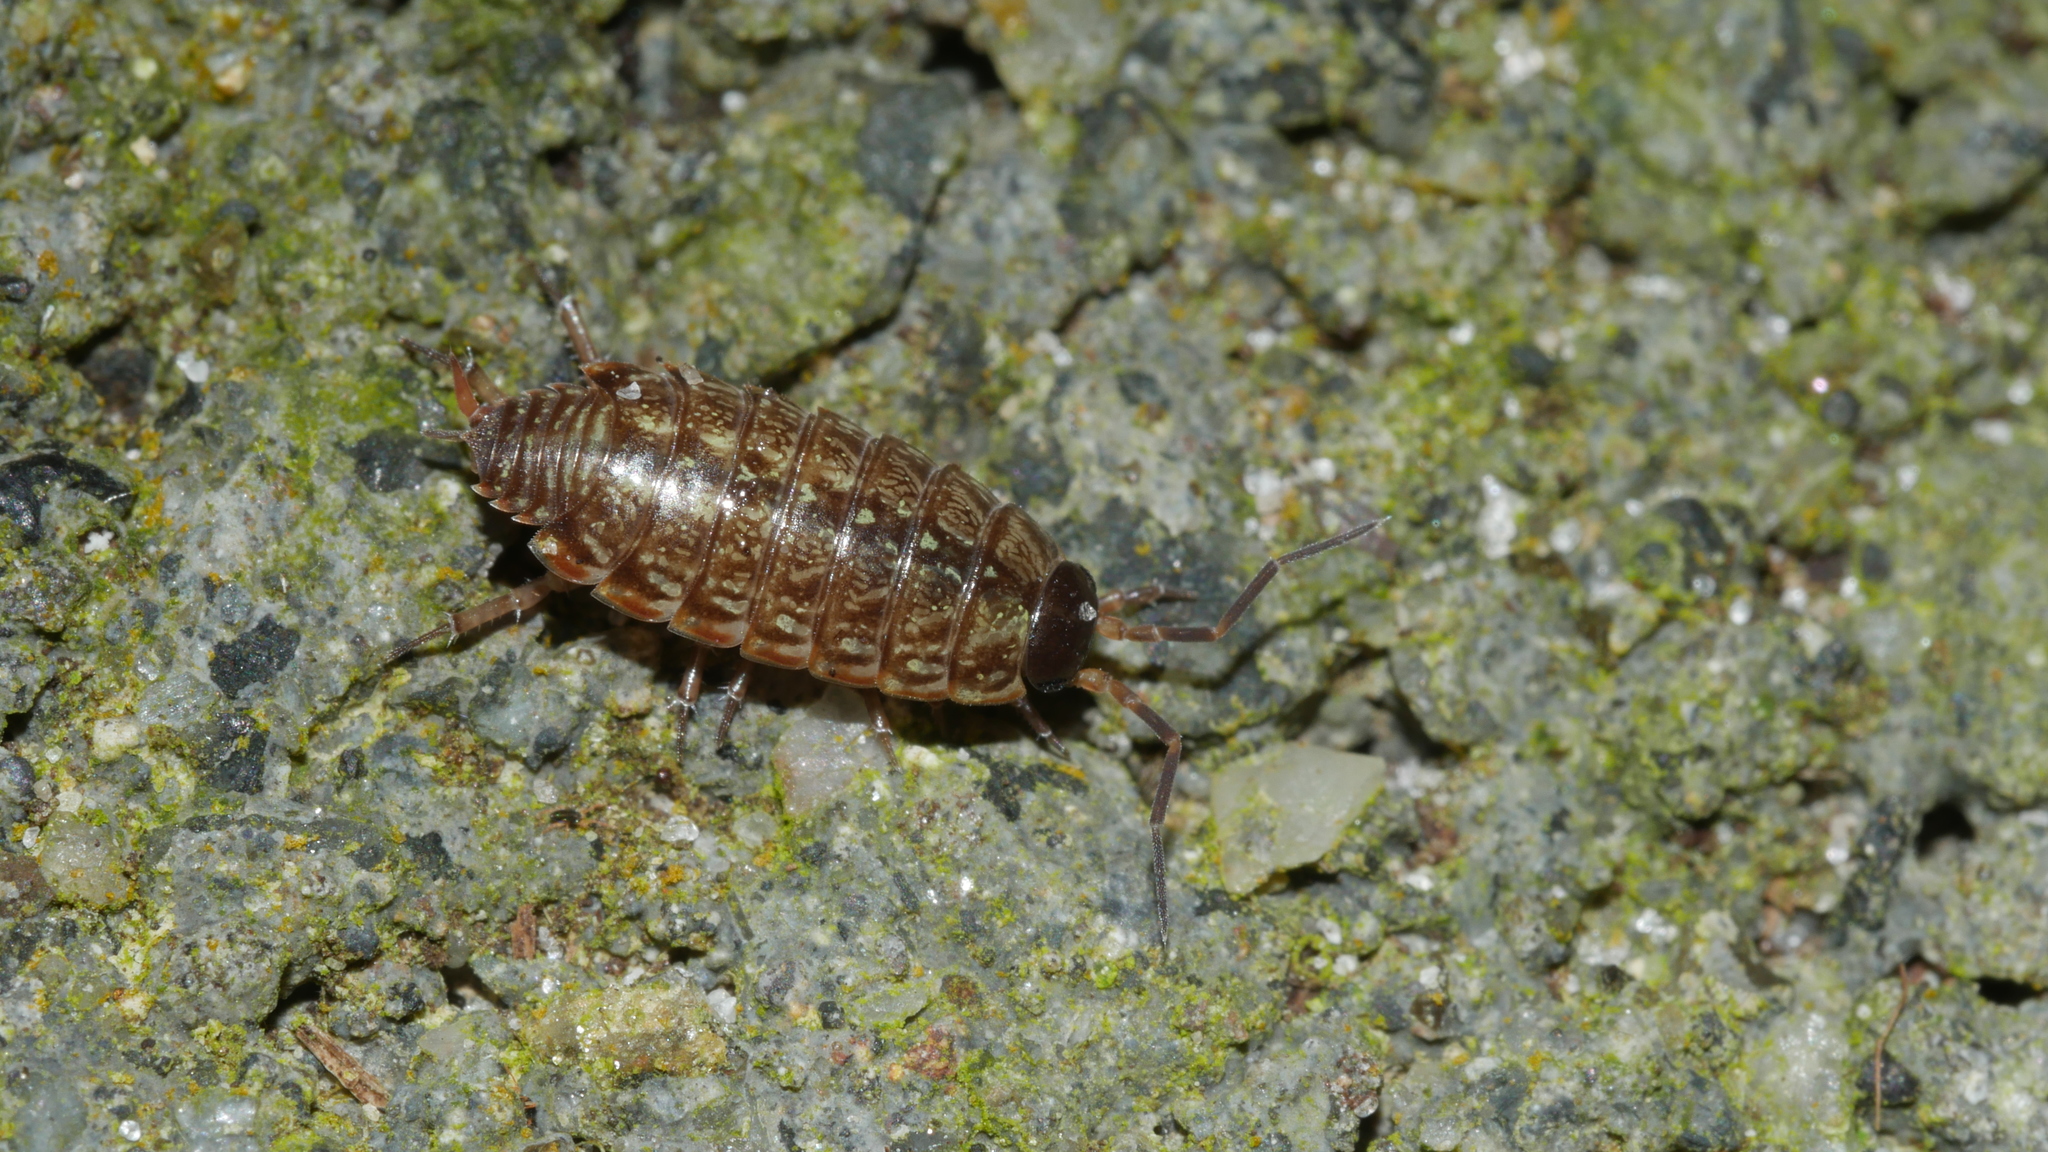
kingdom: Animalia
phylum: Arthropoda
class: Malacostraca
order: Isopoda
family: Philosciidae
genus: Philoscia
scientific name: Philoscia muscorum
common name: Common striped woodlouse
